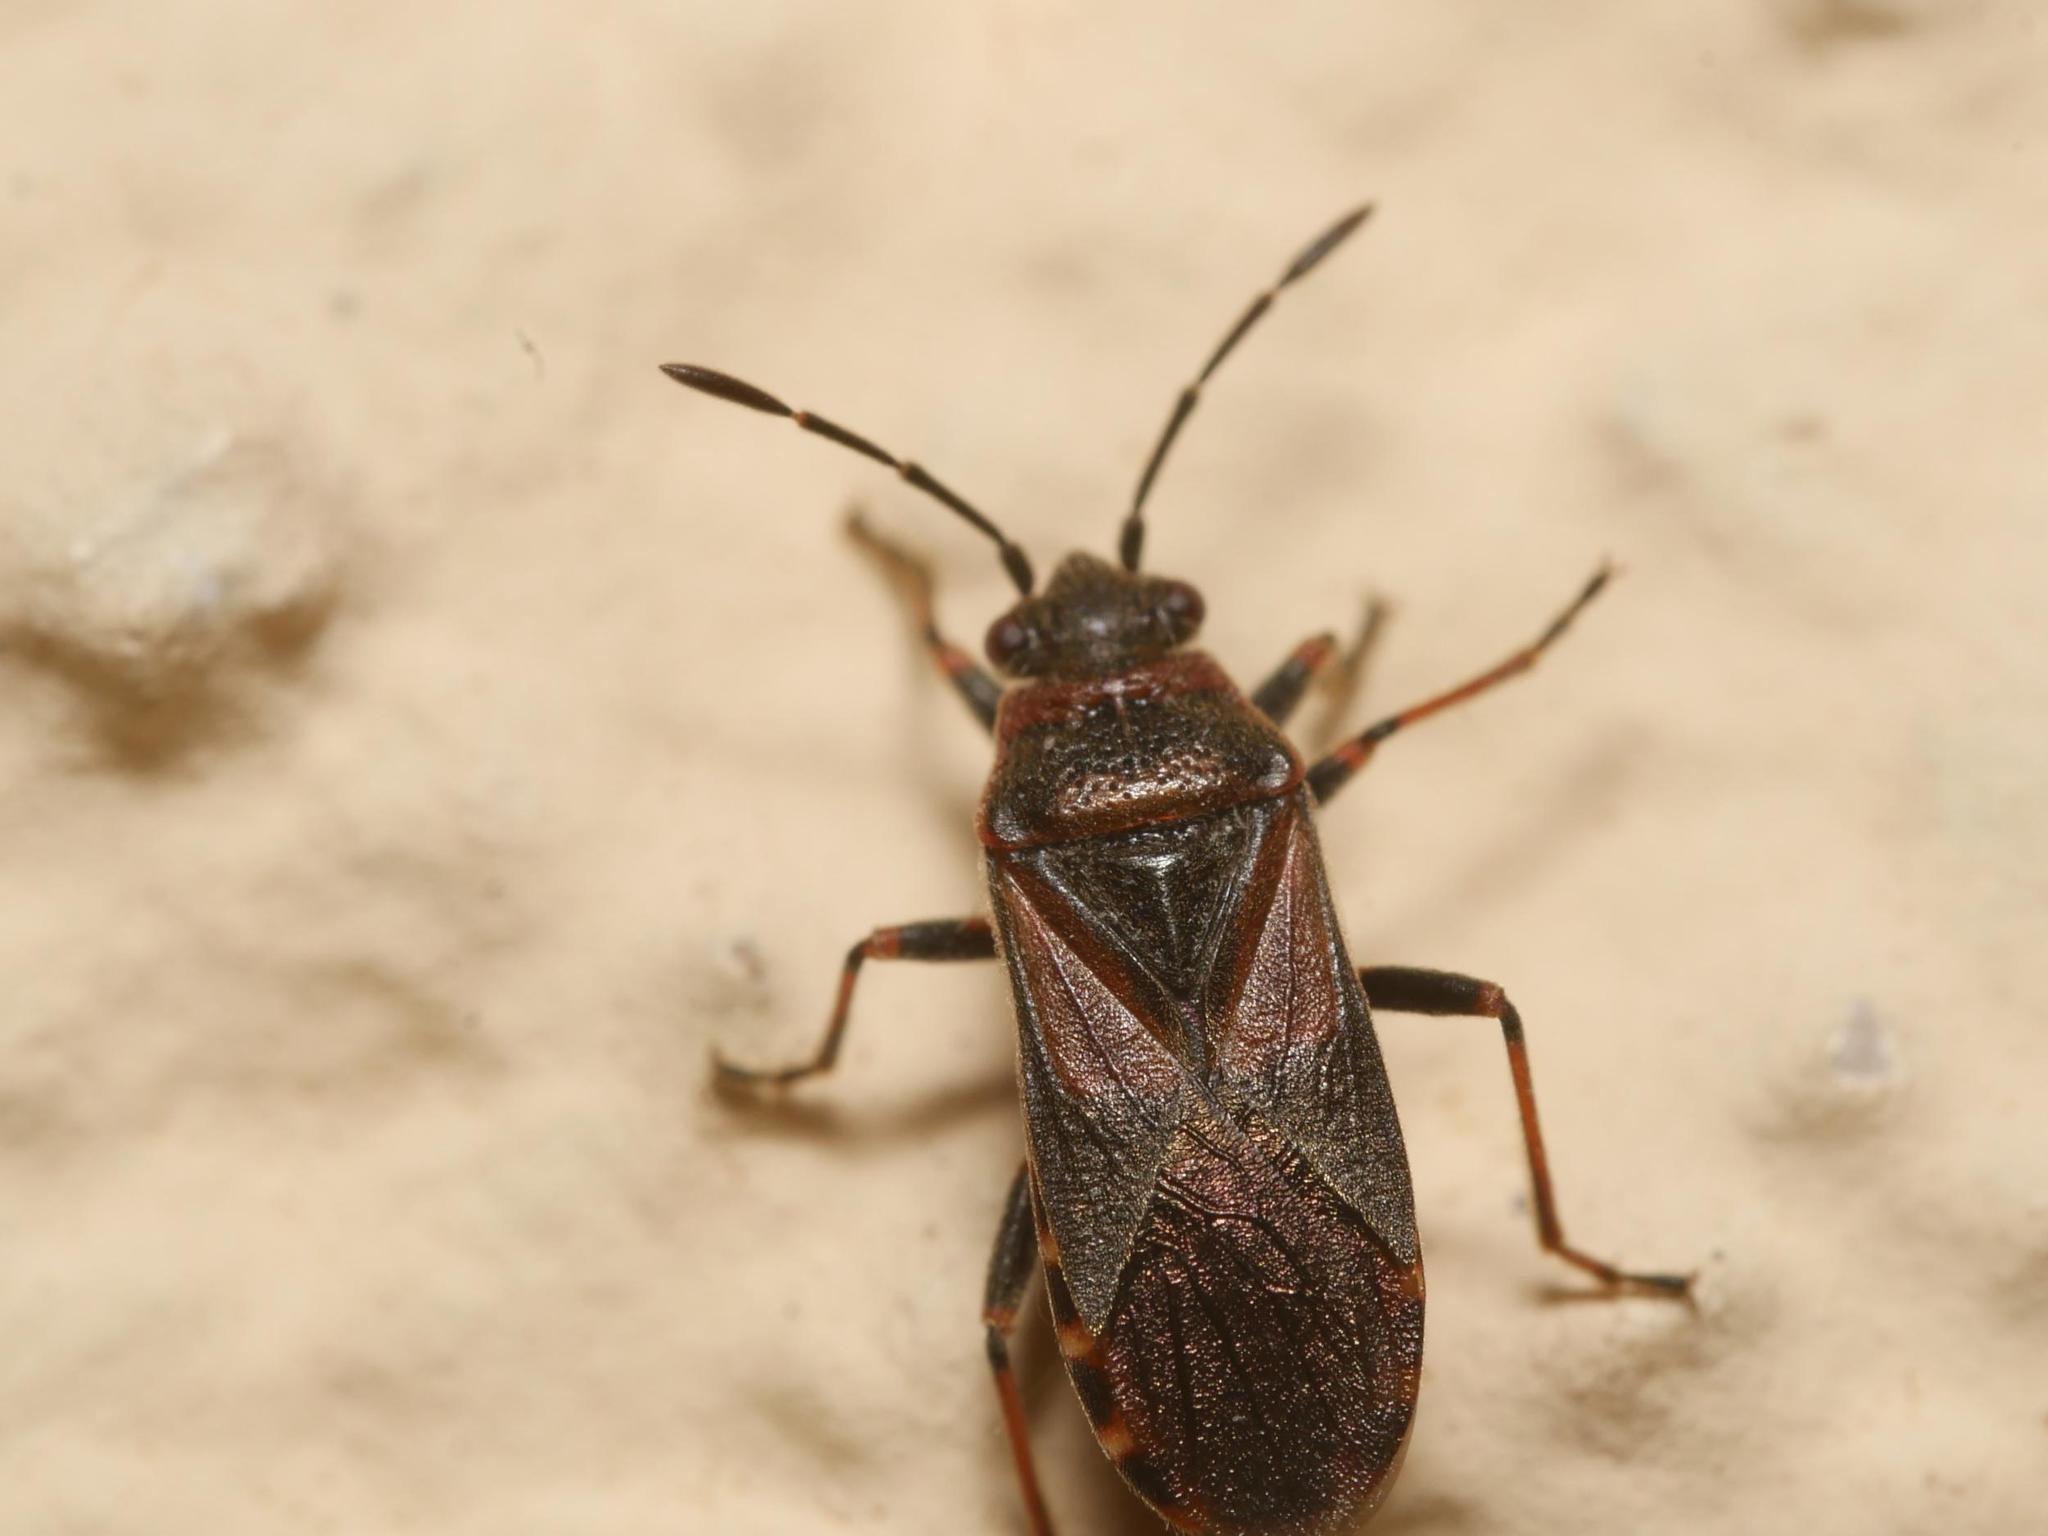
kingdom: Animalia
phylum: Arthropoda
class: Insecta
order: Hemiptera
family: Lygaeidae
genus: Arocatus
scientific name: Arocatus melanocephalus
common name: Lygaeid bug
